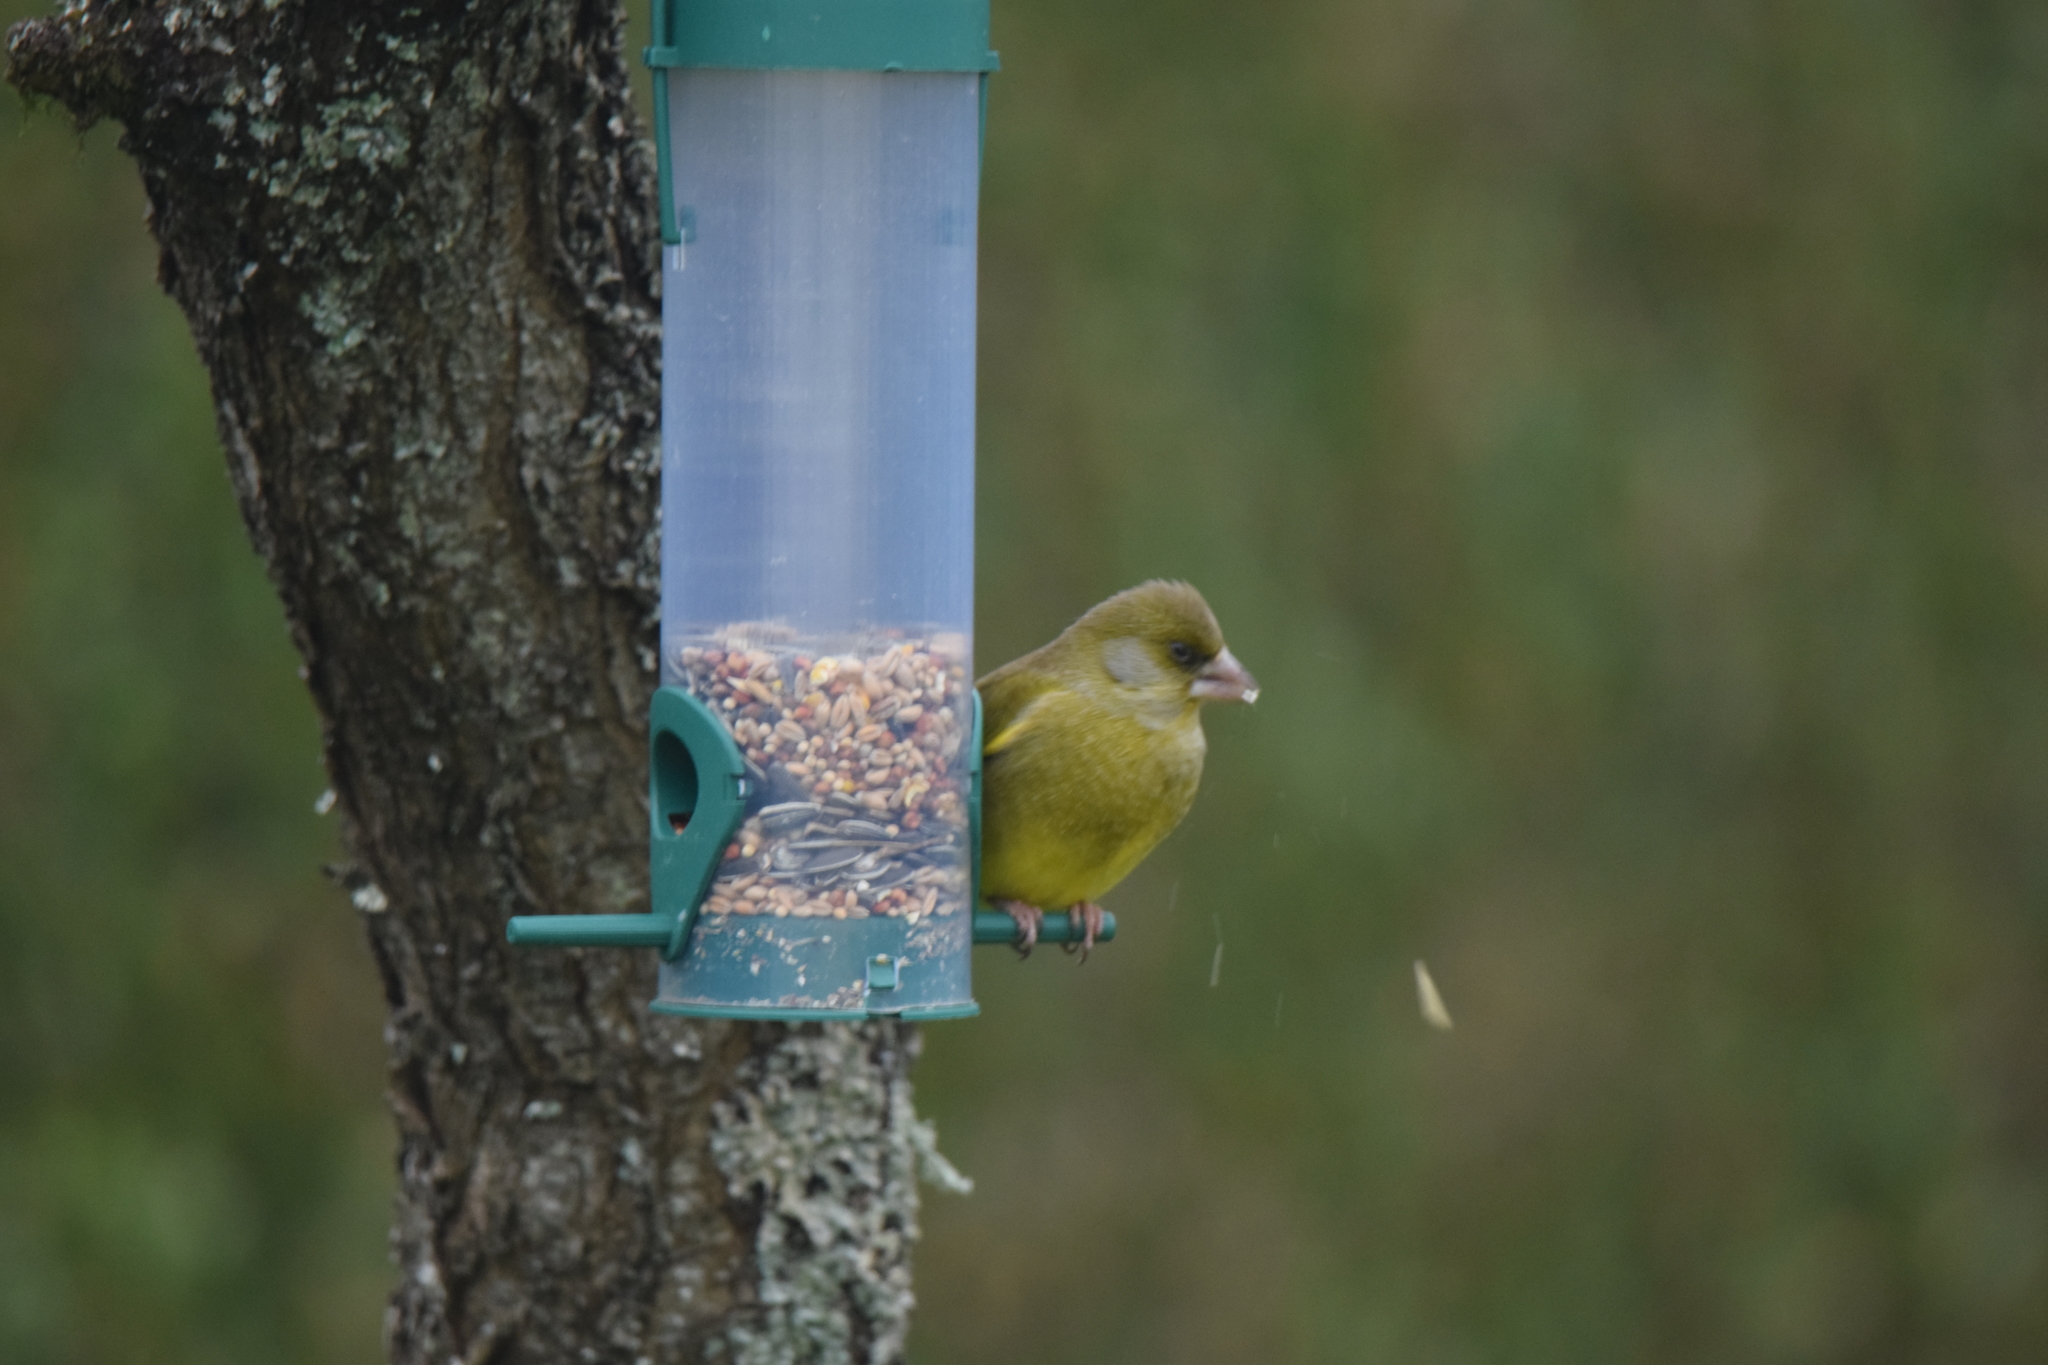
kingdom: Plantae
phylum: Tracheophyta
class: Liliopsida
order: Poales
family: Poaceae
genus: Chloris
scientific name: Chloris chloris
